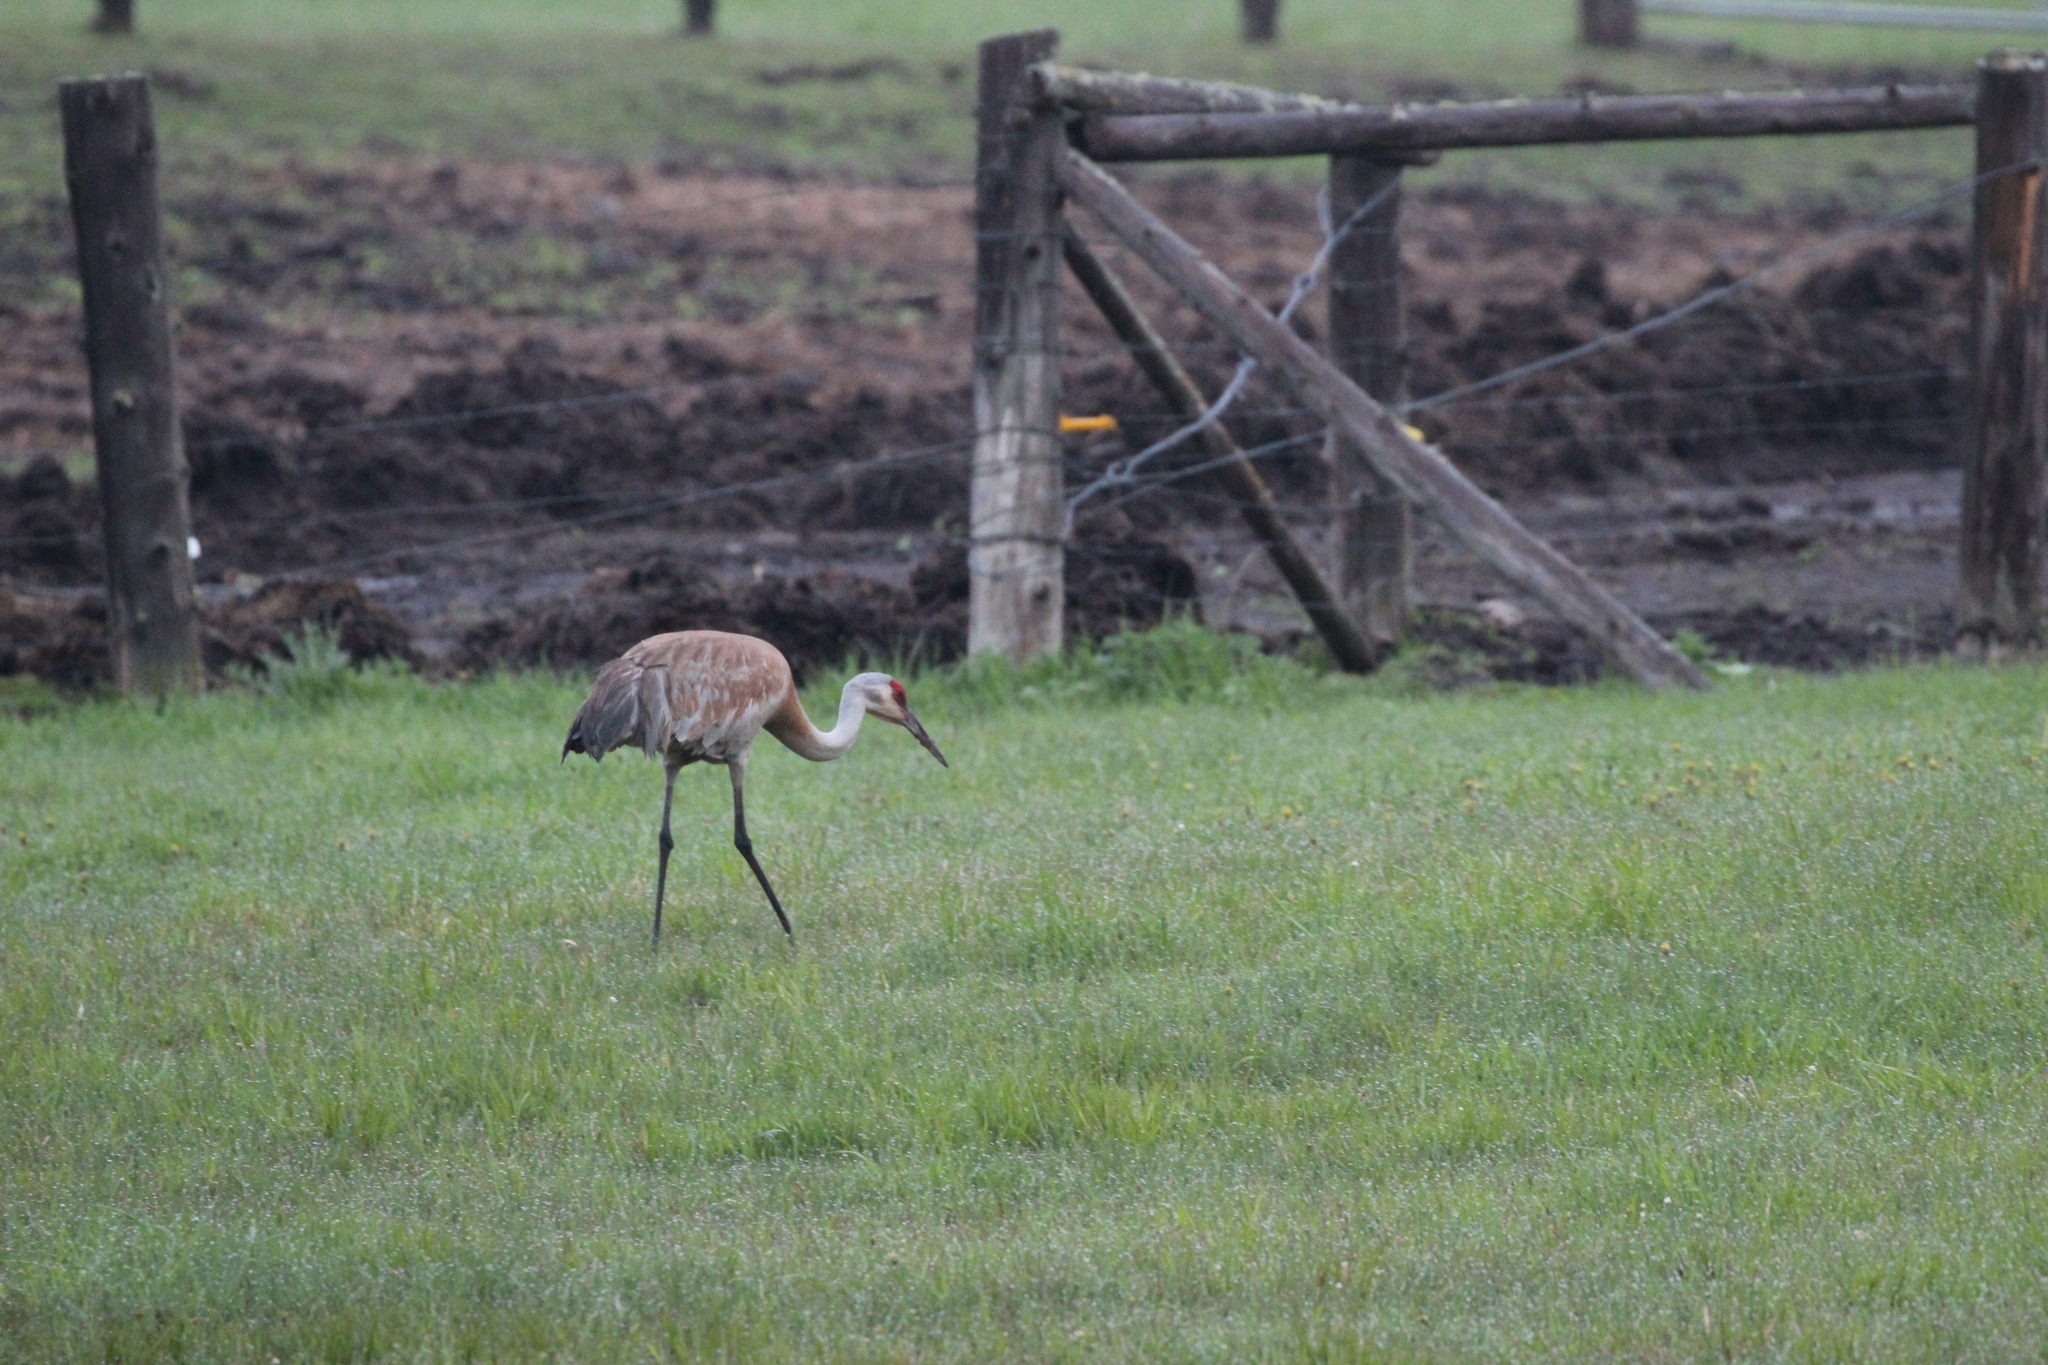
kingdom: Animalia
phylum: Chordata
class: Aves
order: Gruiformes
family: Gruidae
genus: Grus
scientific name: Grus canadensis
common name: Sandhill crane
